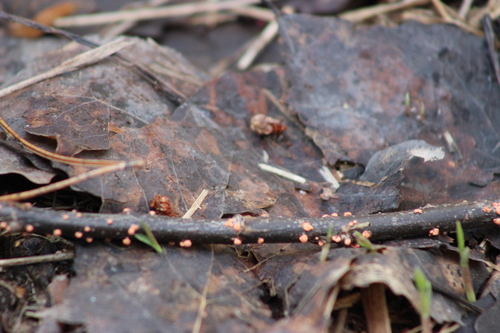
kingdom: Fungi
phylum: Ascomycota
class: Sordariomycetes
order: Hypocreales
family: Nectriaceae
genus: Nectria
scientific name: Nectria cinnabarina
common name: Coral spot
